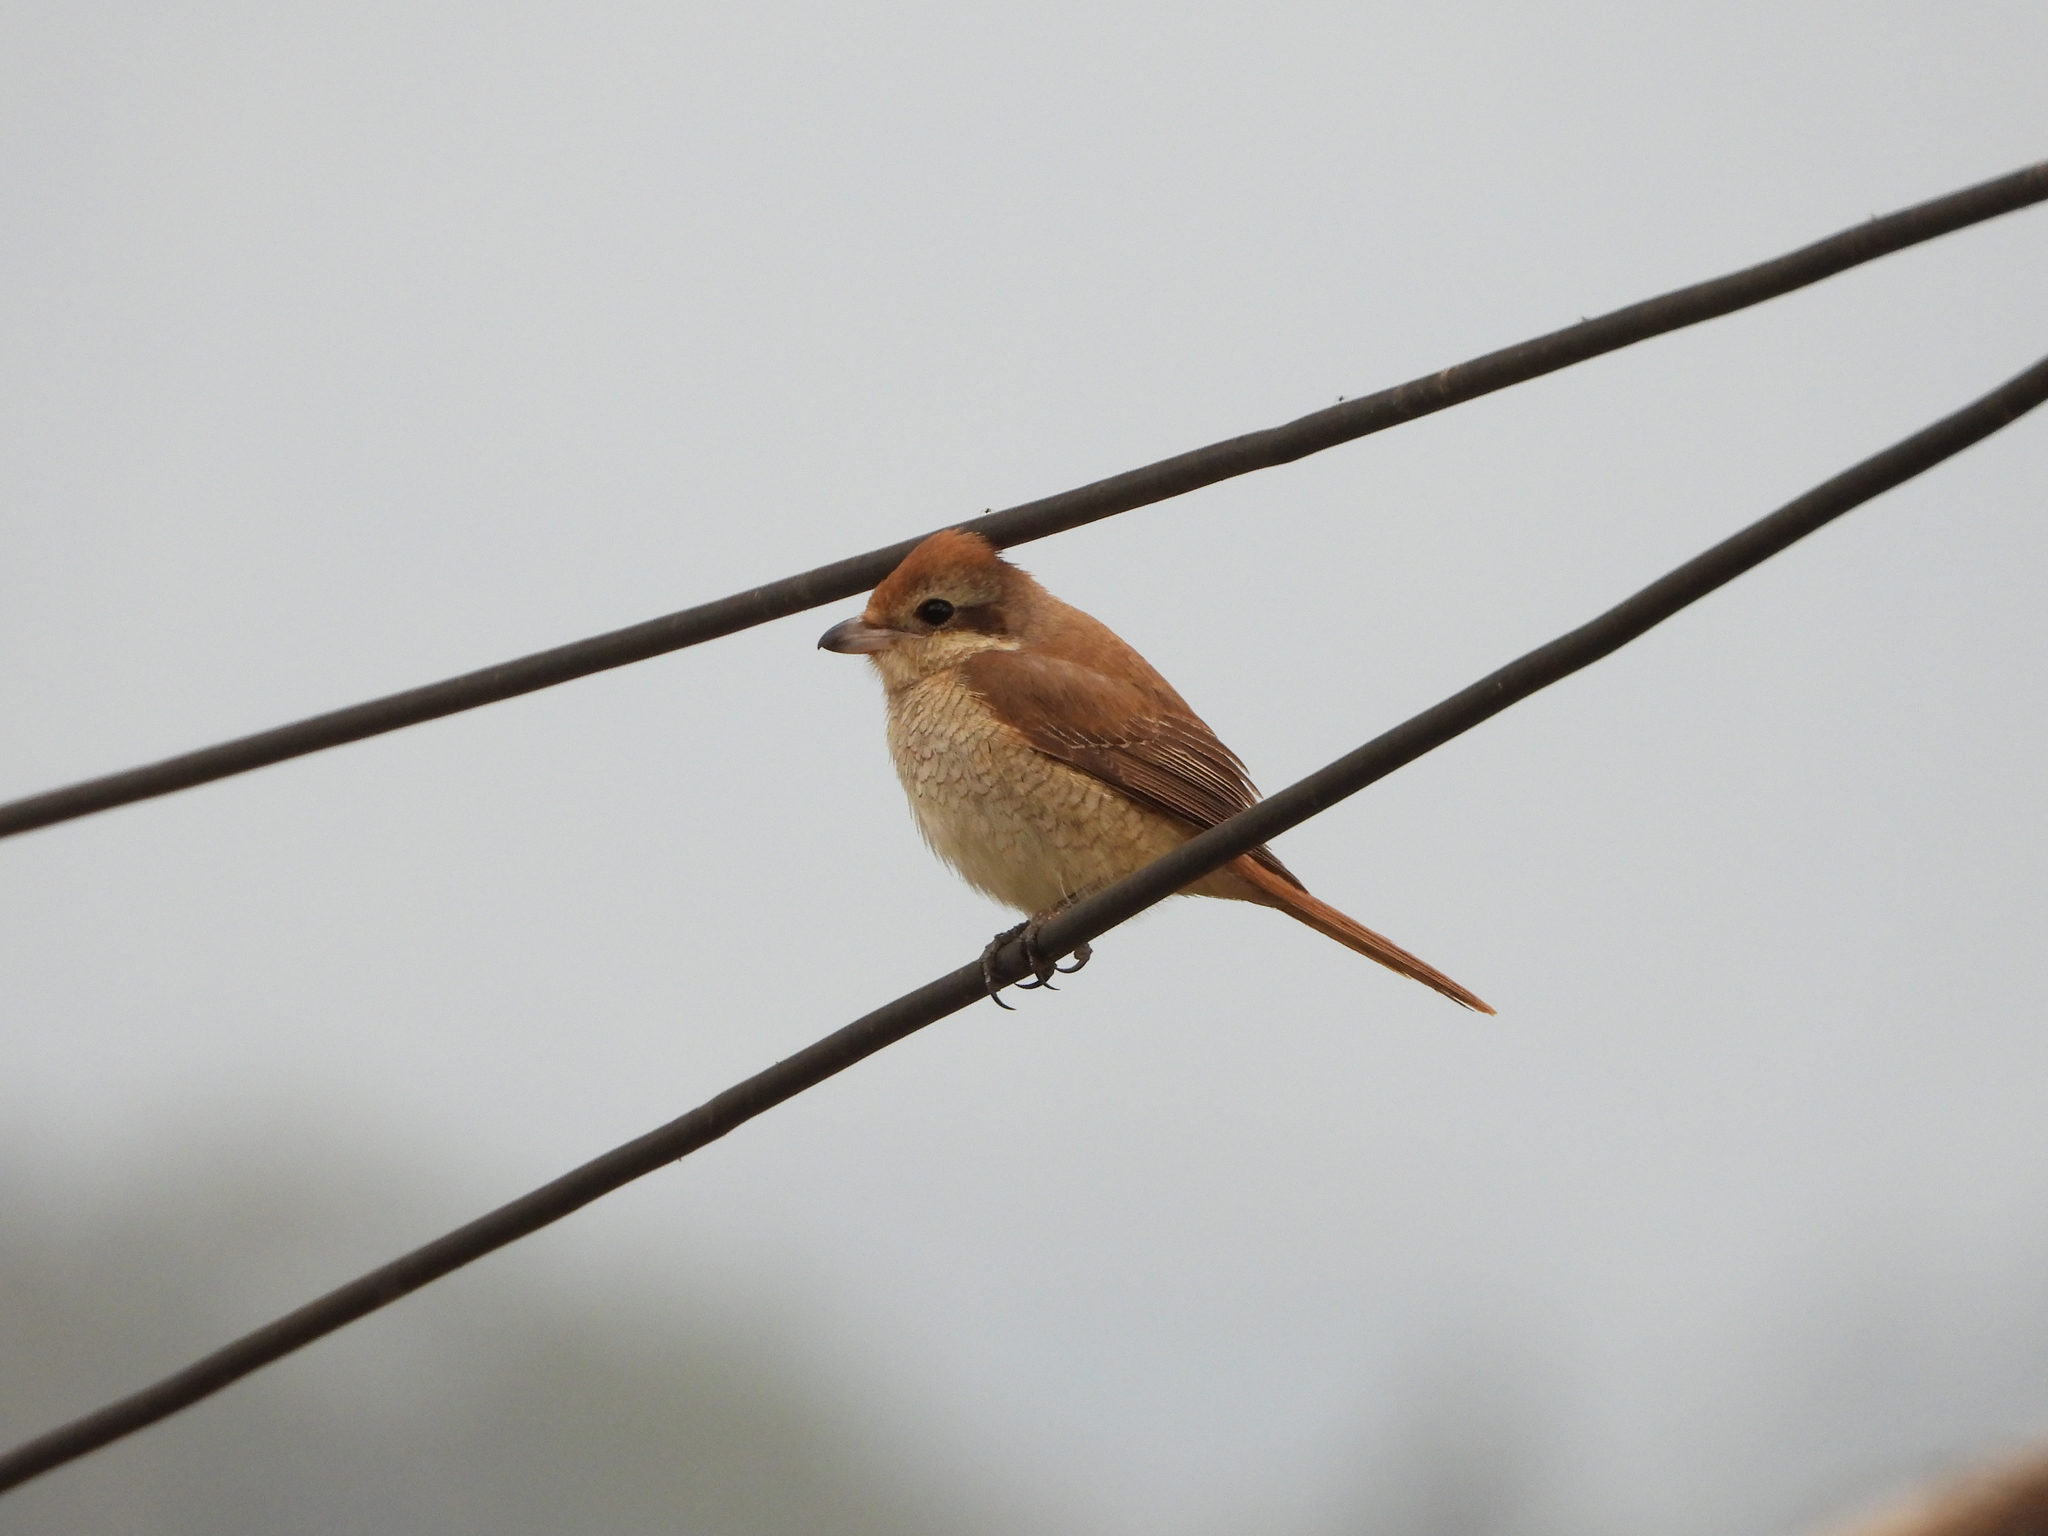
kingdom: Animalia
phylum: Chordata
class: Aves
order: Passeriformes
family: Laniidae
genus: Lanius
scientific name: Lanius cristatus
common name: Brown shrike
